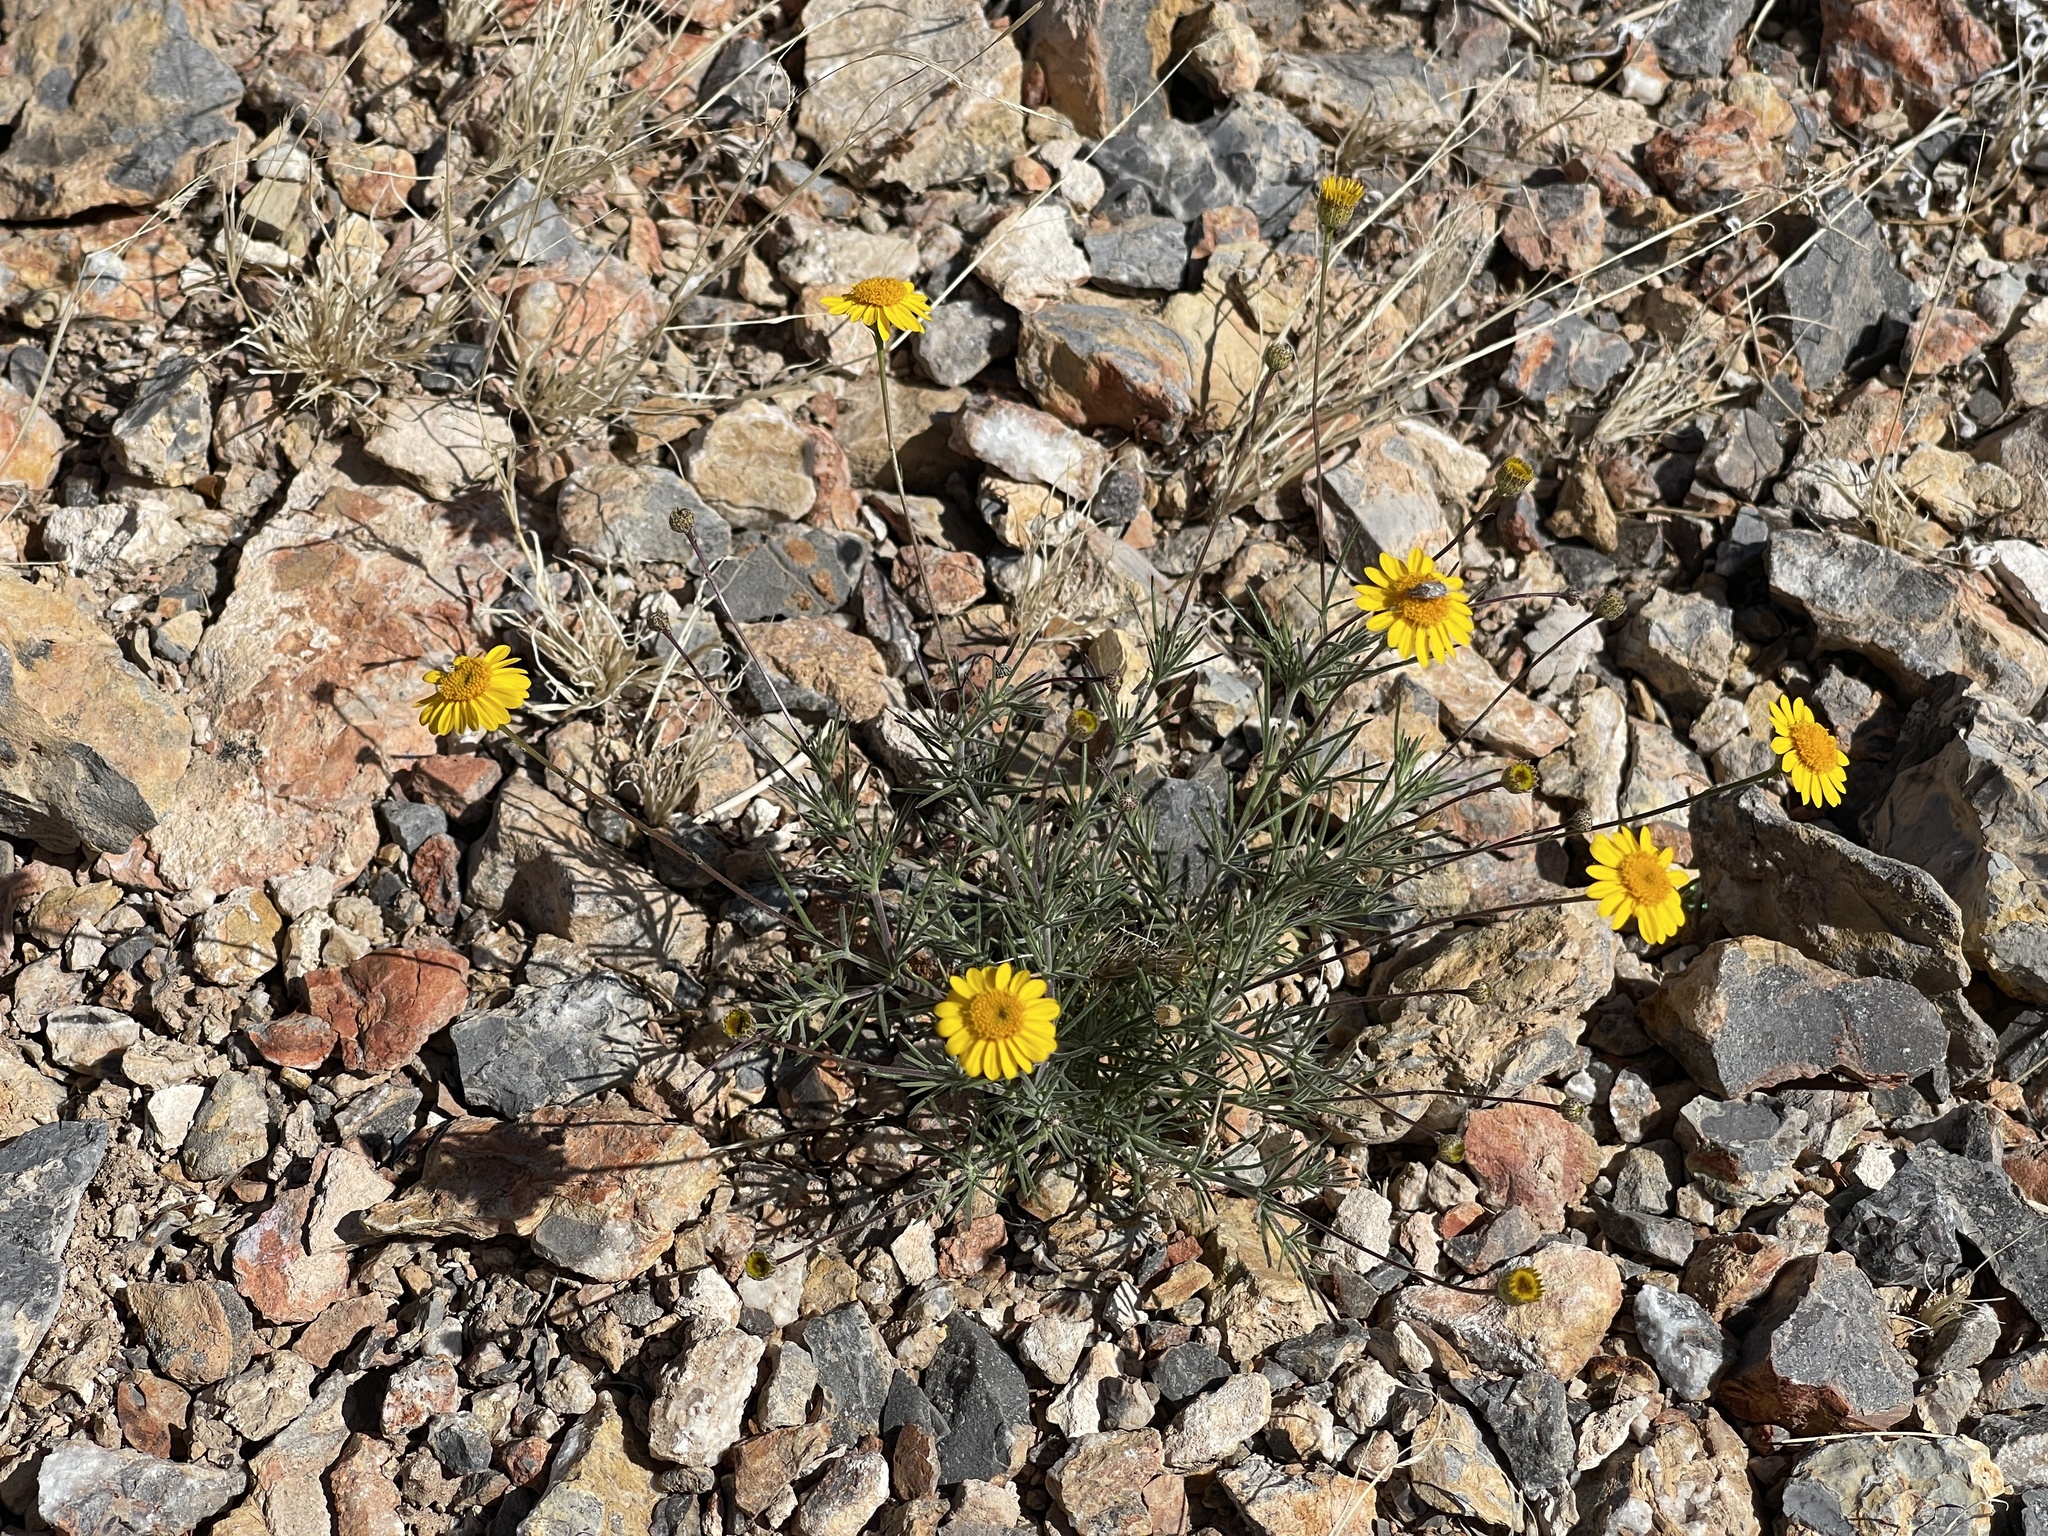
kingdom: Plantae
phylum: Tracheophyta
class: Magnoliopsida
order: Asterales
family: Asteraceae
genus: Thymophylla
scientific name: Thymophylla pentachaeta
